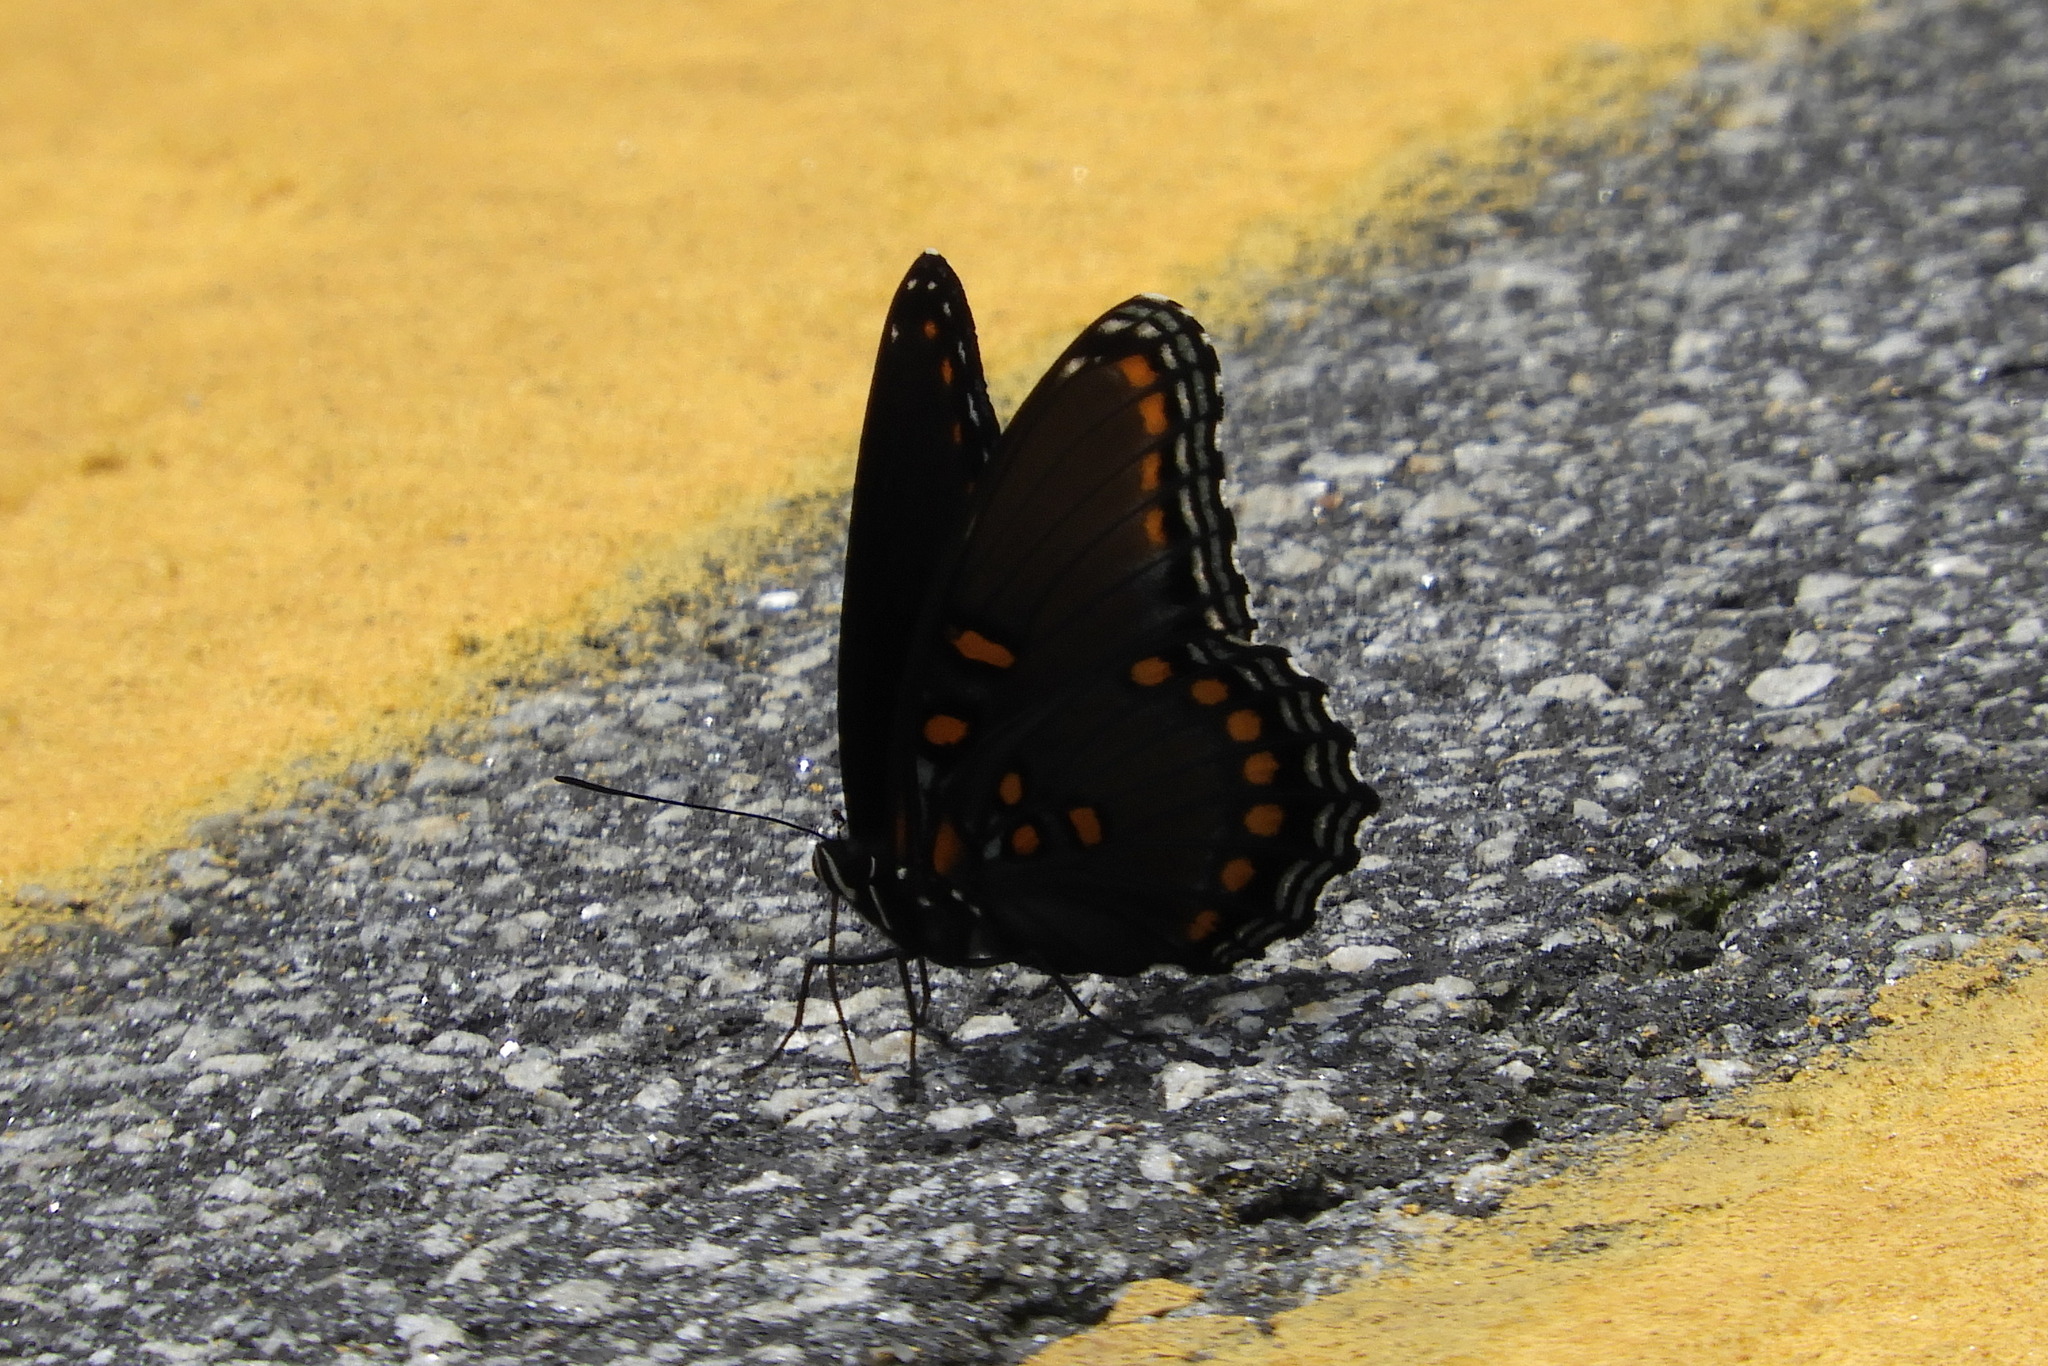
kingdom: Animalia
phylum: Arthropoda
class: Insecta
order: Lepidoptera
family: Nymphalidae
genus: Limenitis
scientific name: Limenitis astyanax
